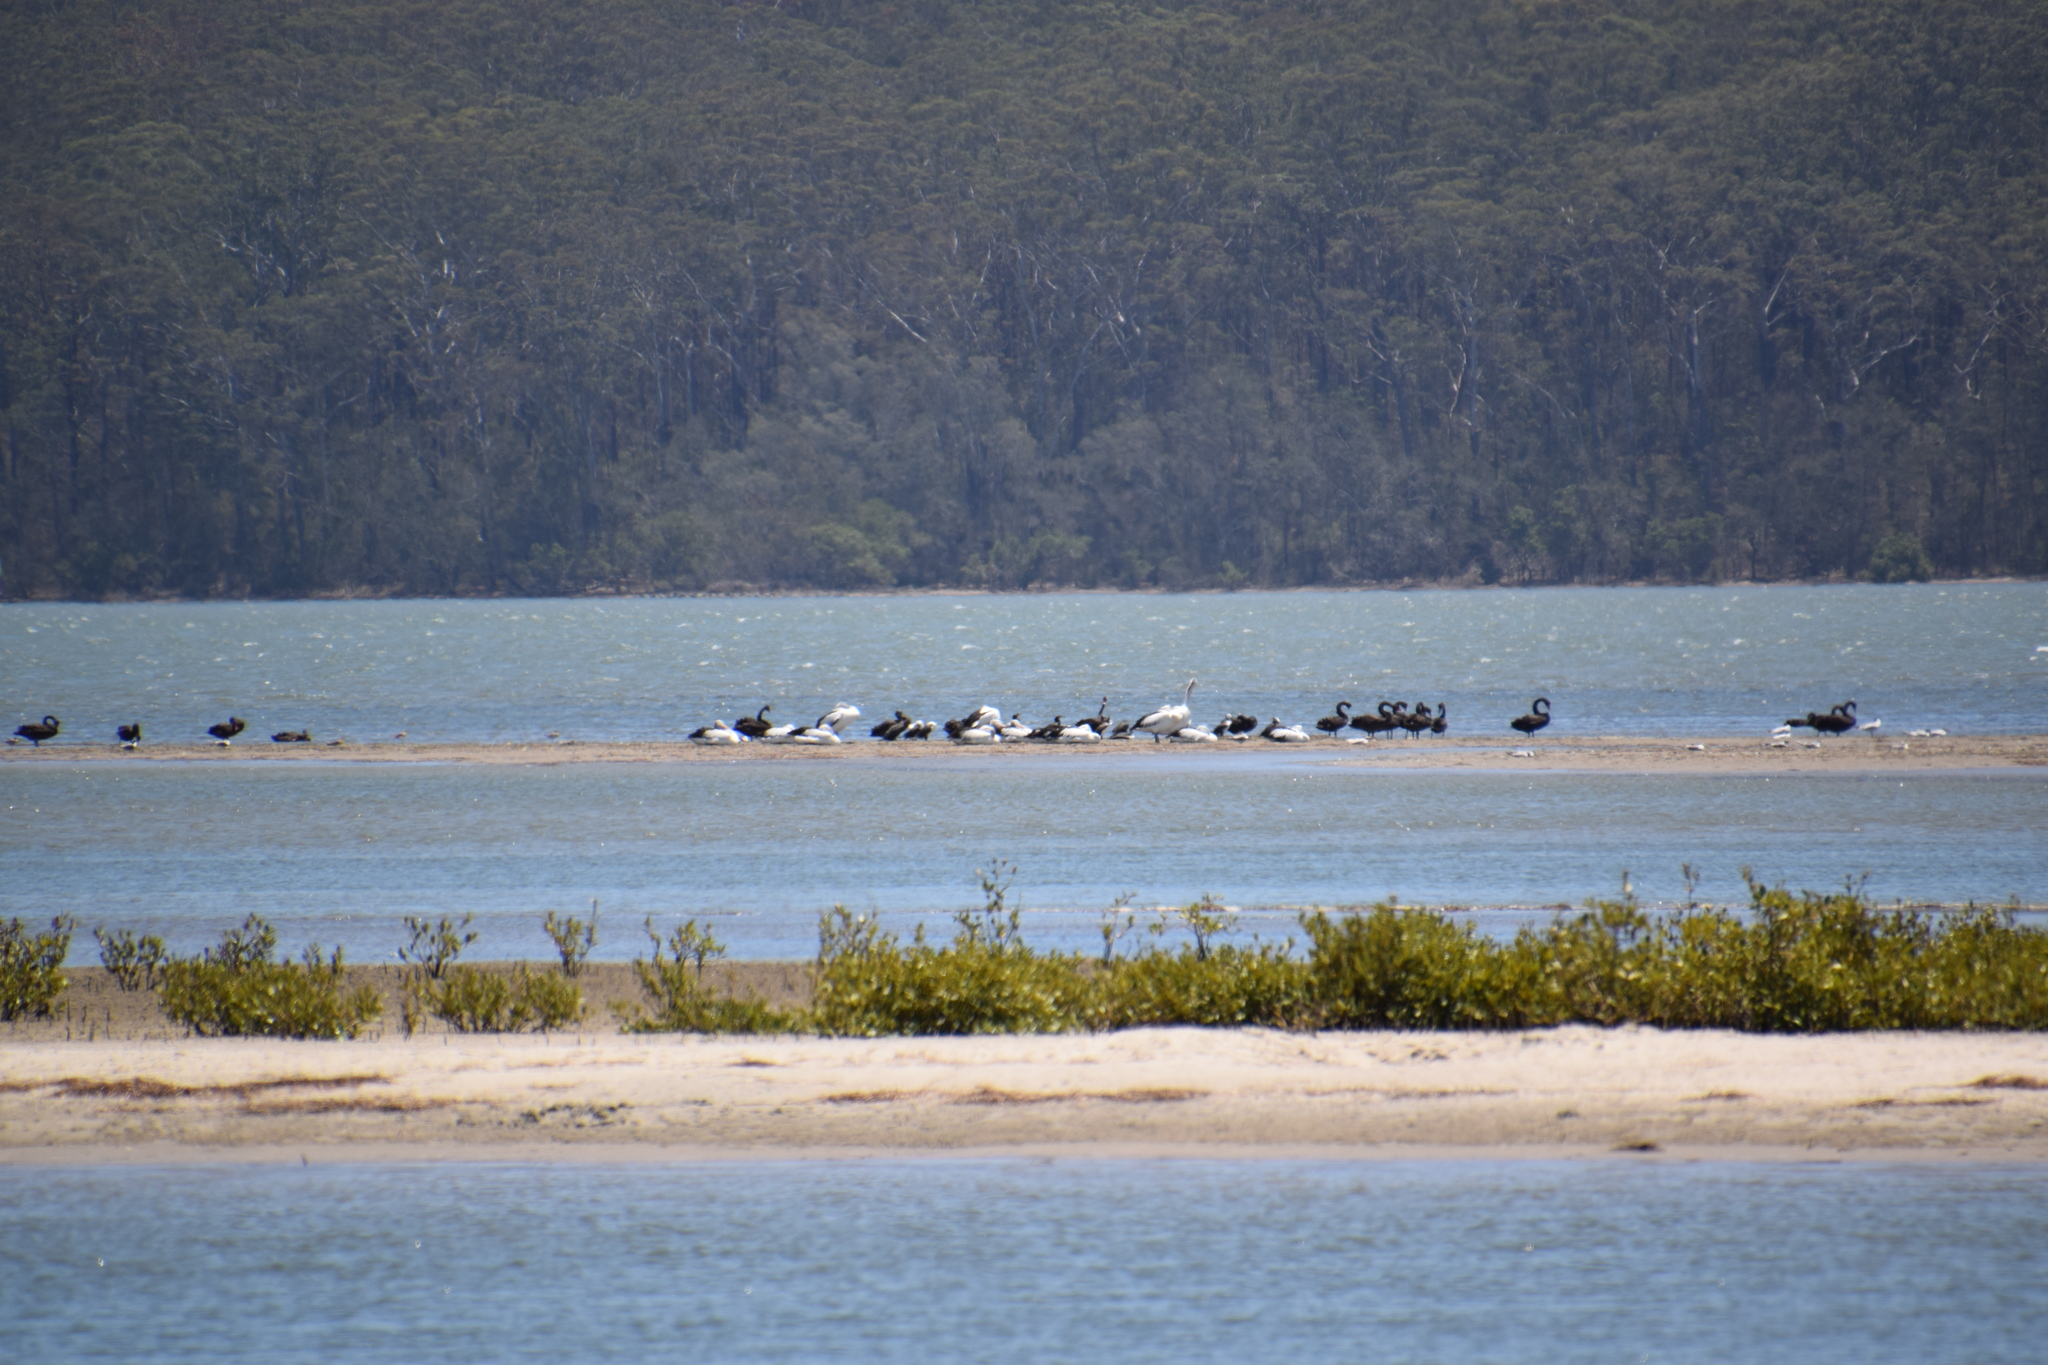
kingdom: Animalia
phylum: Chordata
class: Aves
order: Pelecaniformes
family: Pelecanidae
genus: Pelecanus
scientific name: Pelecanus conspicillatus
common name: Australian pelican
